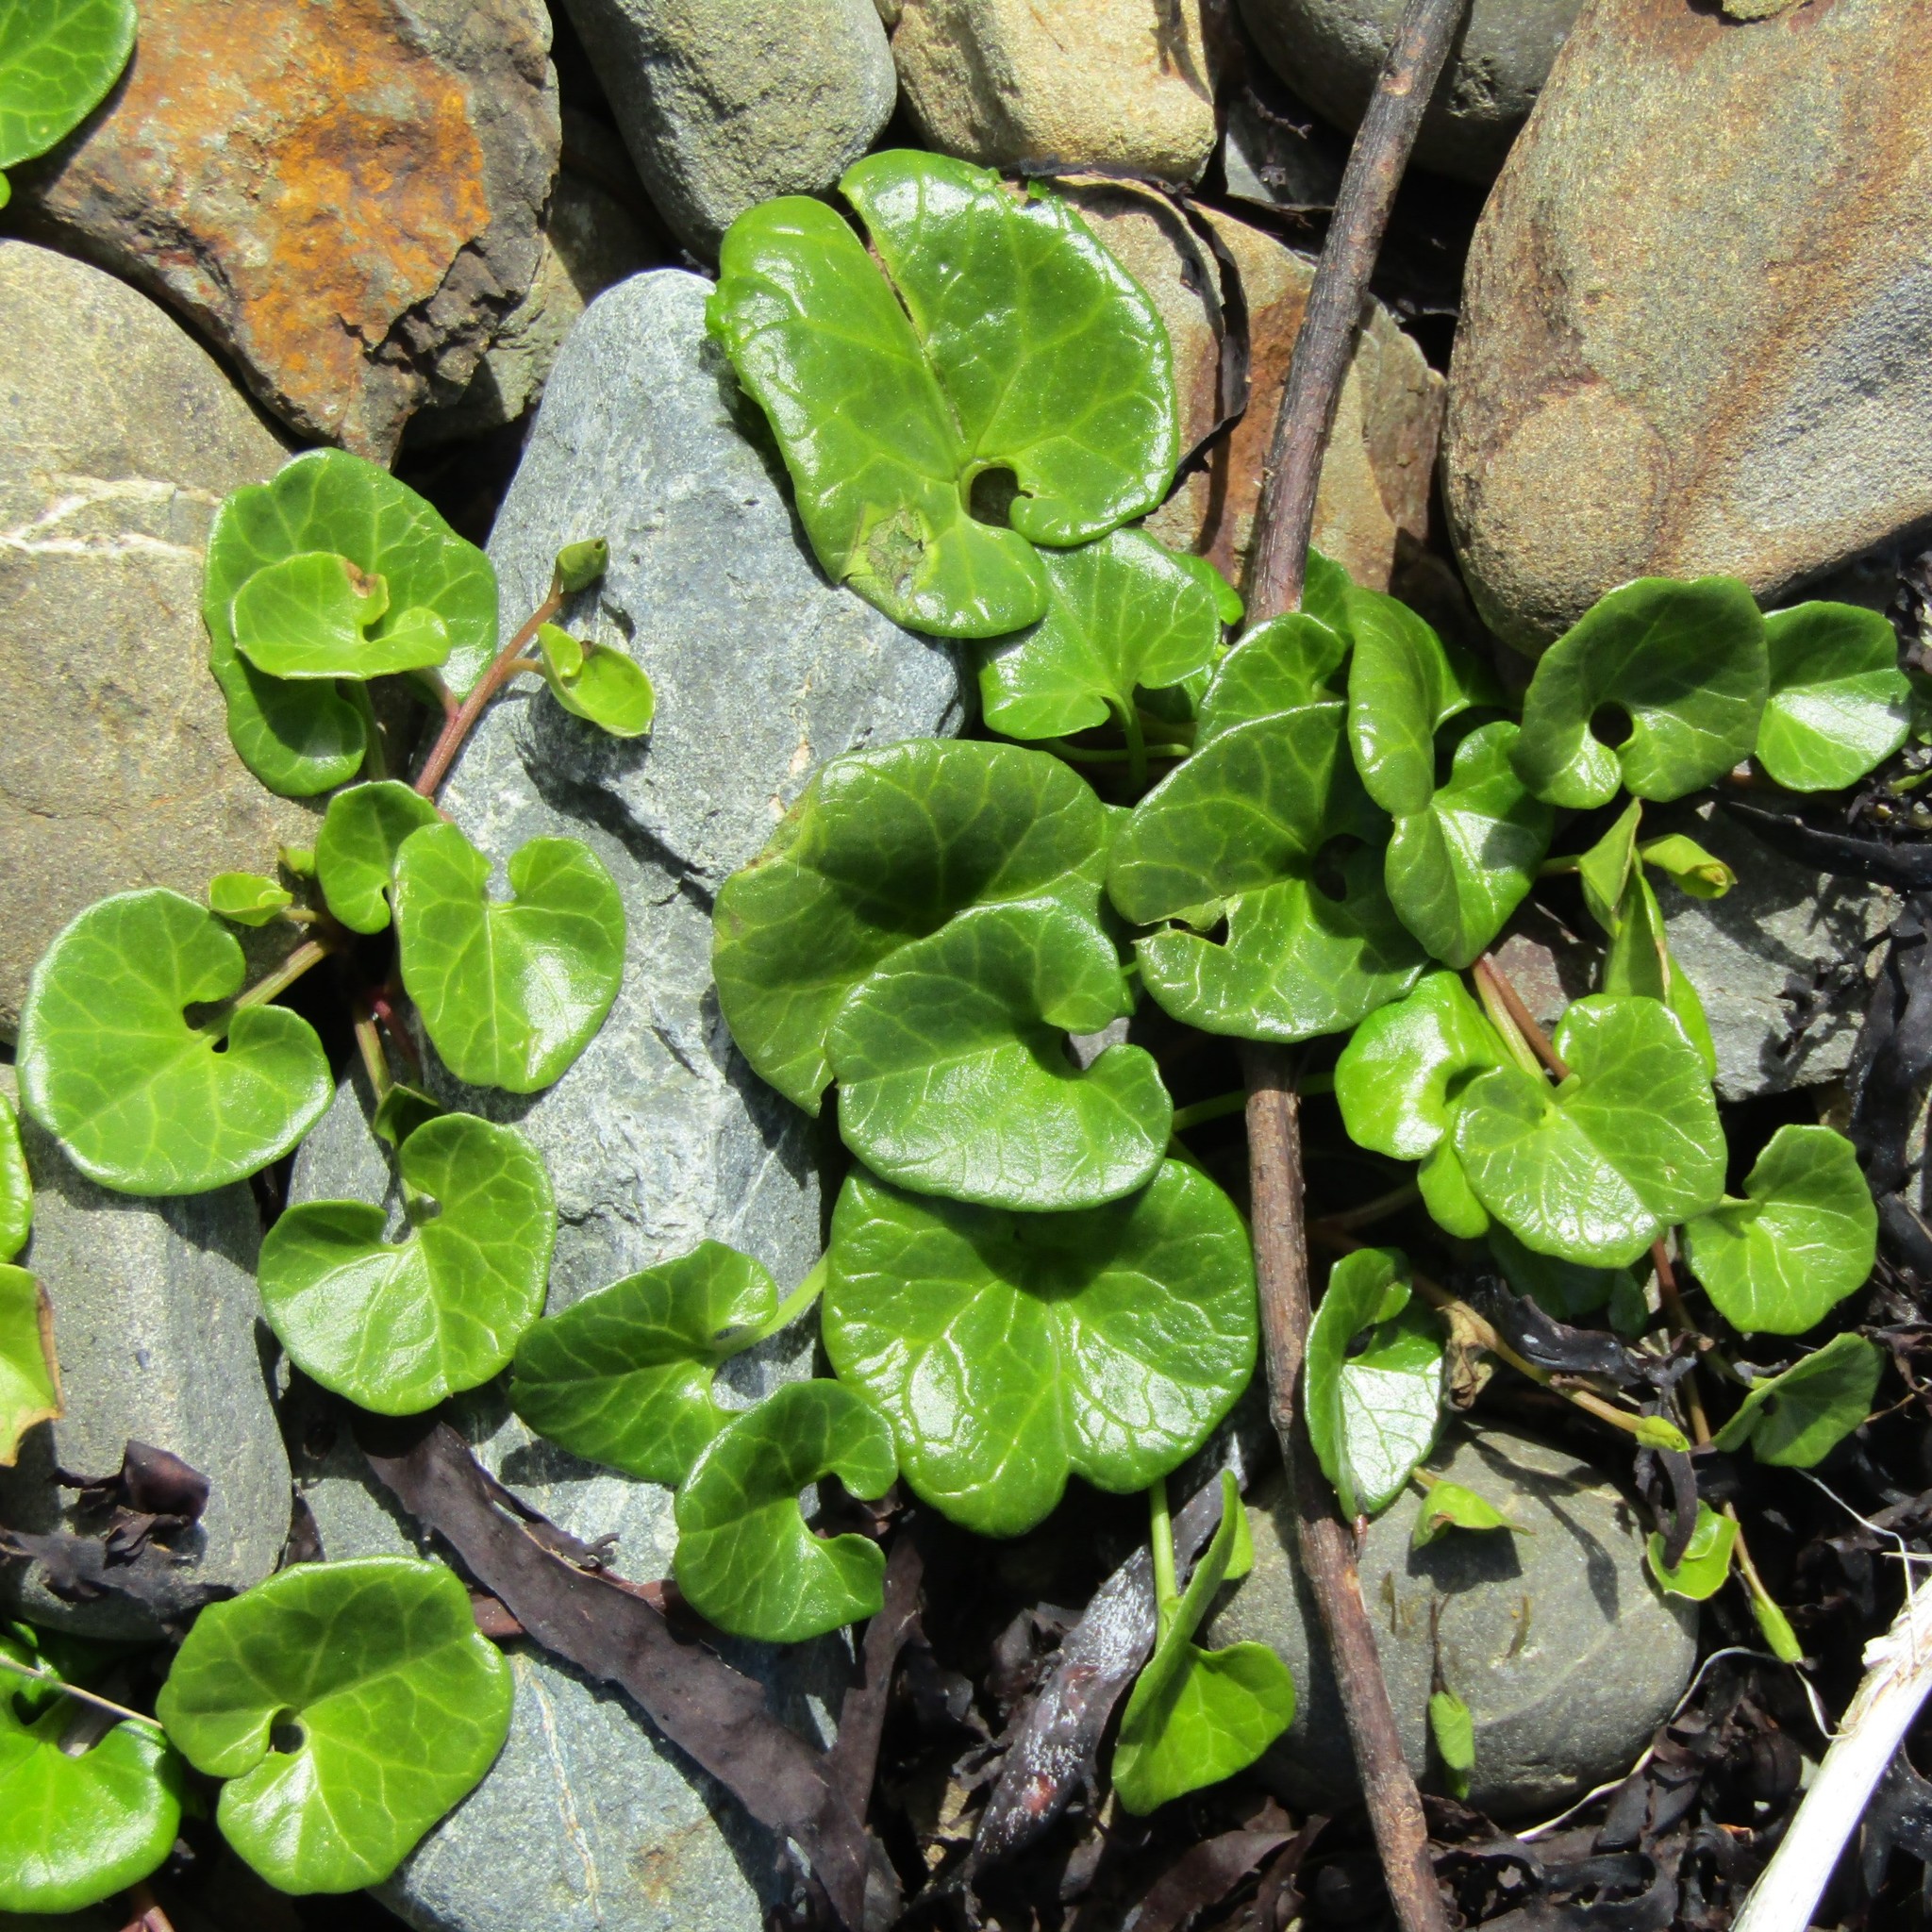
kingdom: Plantae
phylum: Tracheophyta
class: Magnoliopsida
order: Solanales
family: Convolvulaceae
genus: Calystegia
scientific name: Calystegia soldanella
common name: Sea bindweed
